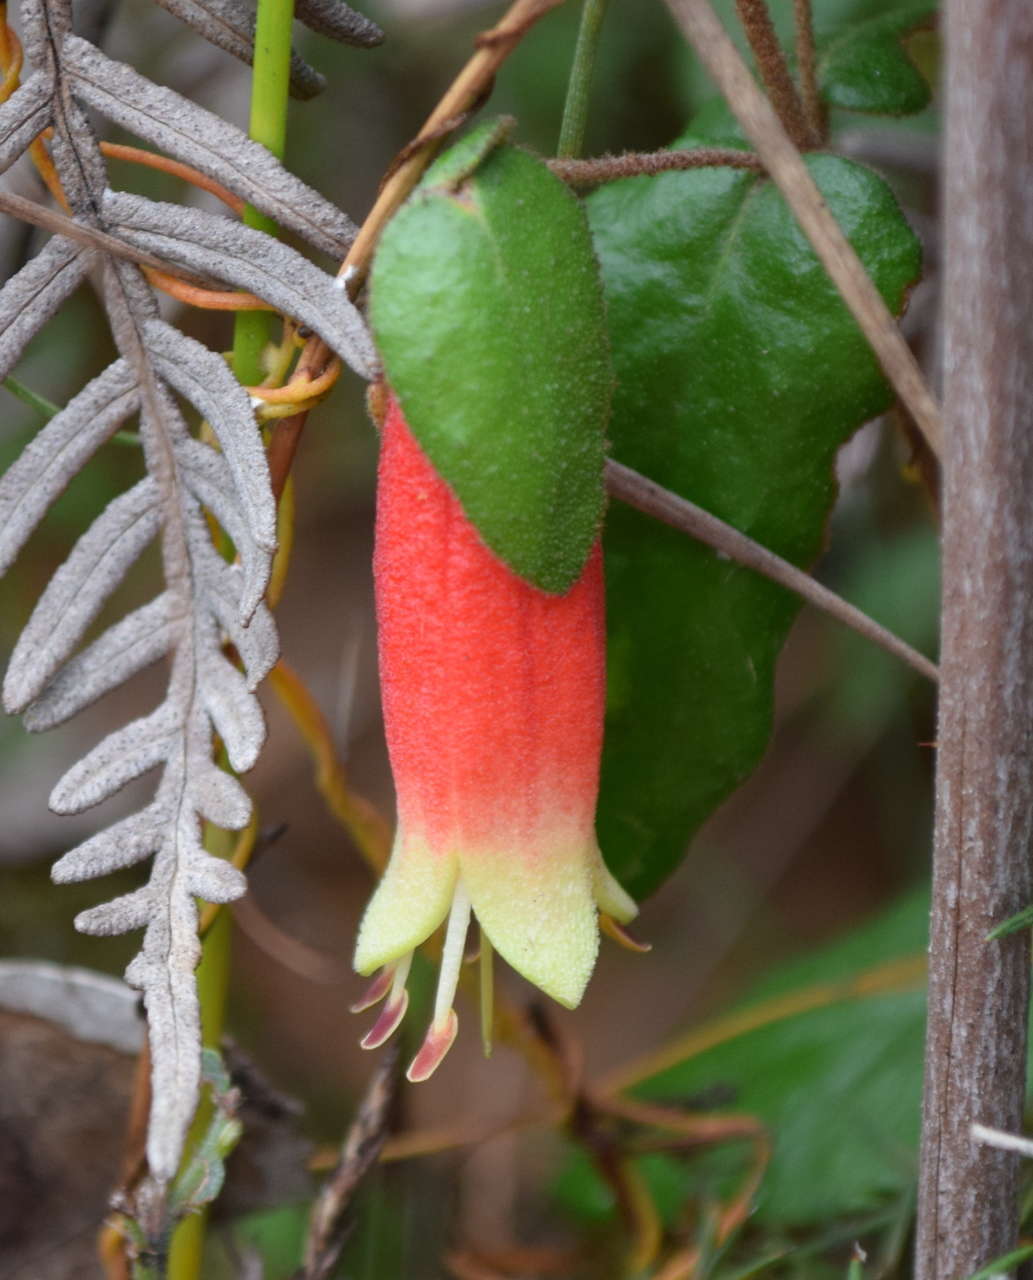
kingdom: Plantae
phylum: Tracheophyta
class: Magnoliopsida
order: Sapindales
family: Rutaceae
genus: Correa
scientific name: Correa reflexa
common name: Common correa
